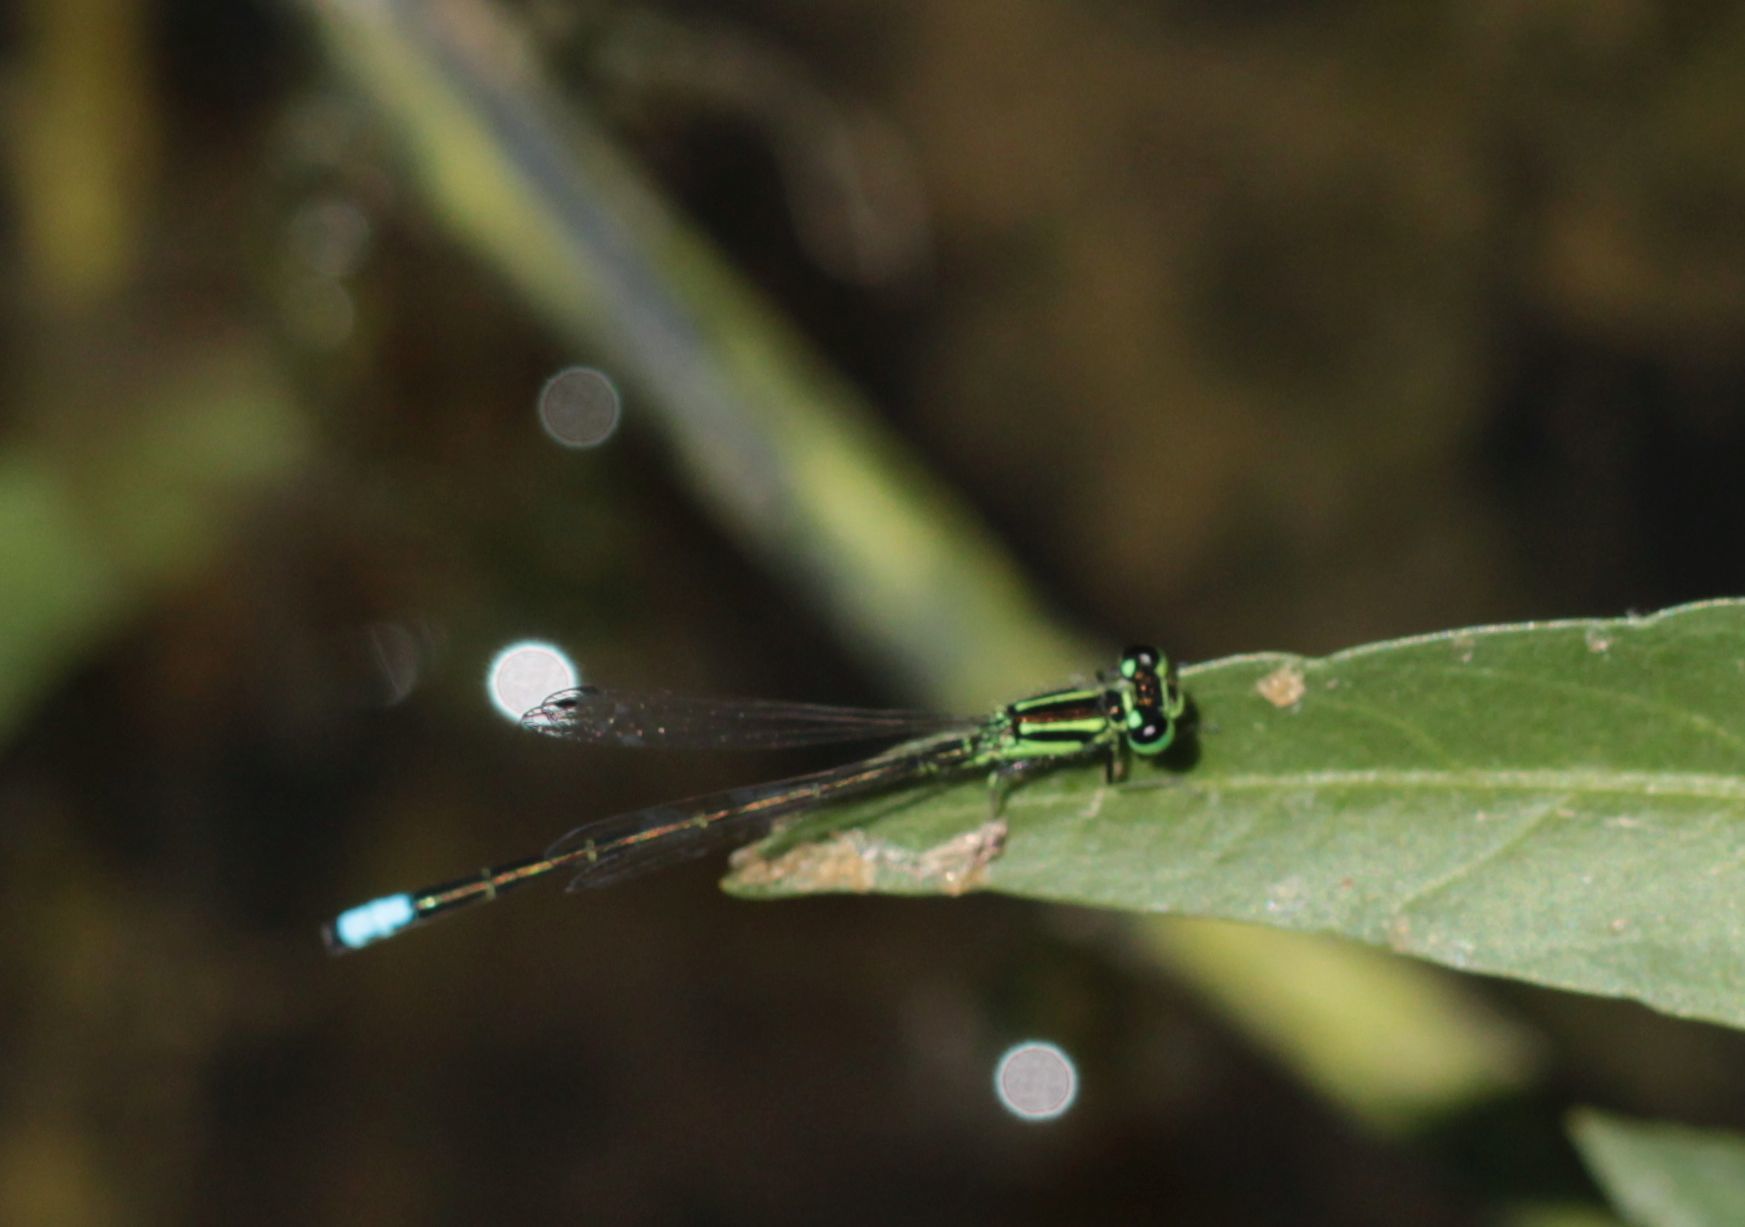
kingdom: Animalia
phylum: Arthropoda
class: Insecta
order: Odonata
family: Coenagrionidae
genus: Ischnura
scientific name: Ischnura verticalis
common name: Eastern forktail
